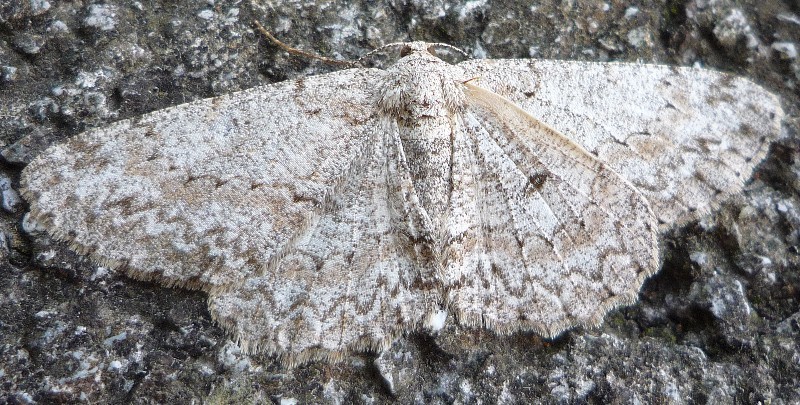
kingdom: Animalia
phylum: Arthropoda
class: Insecta
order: Lepidoptera
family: Geometridae
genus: Hypomecis
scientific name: Hypomecis punctinalis
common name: Pale oak beauty
